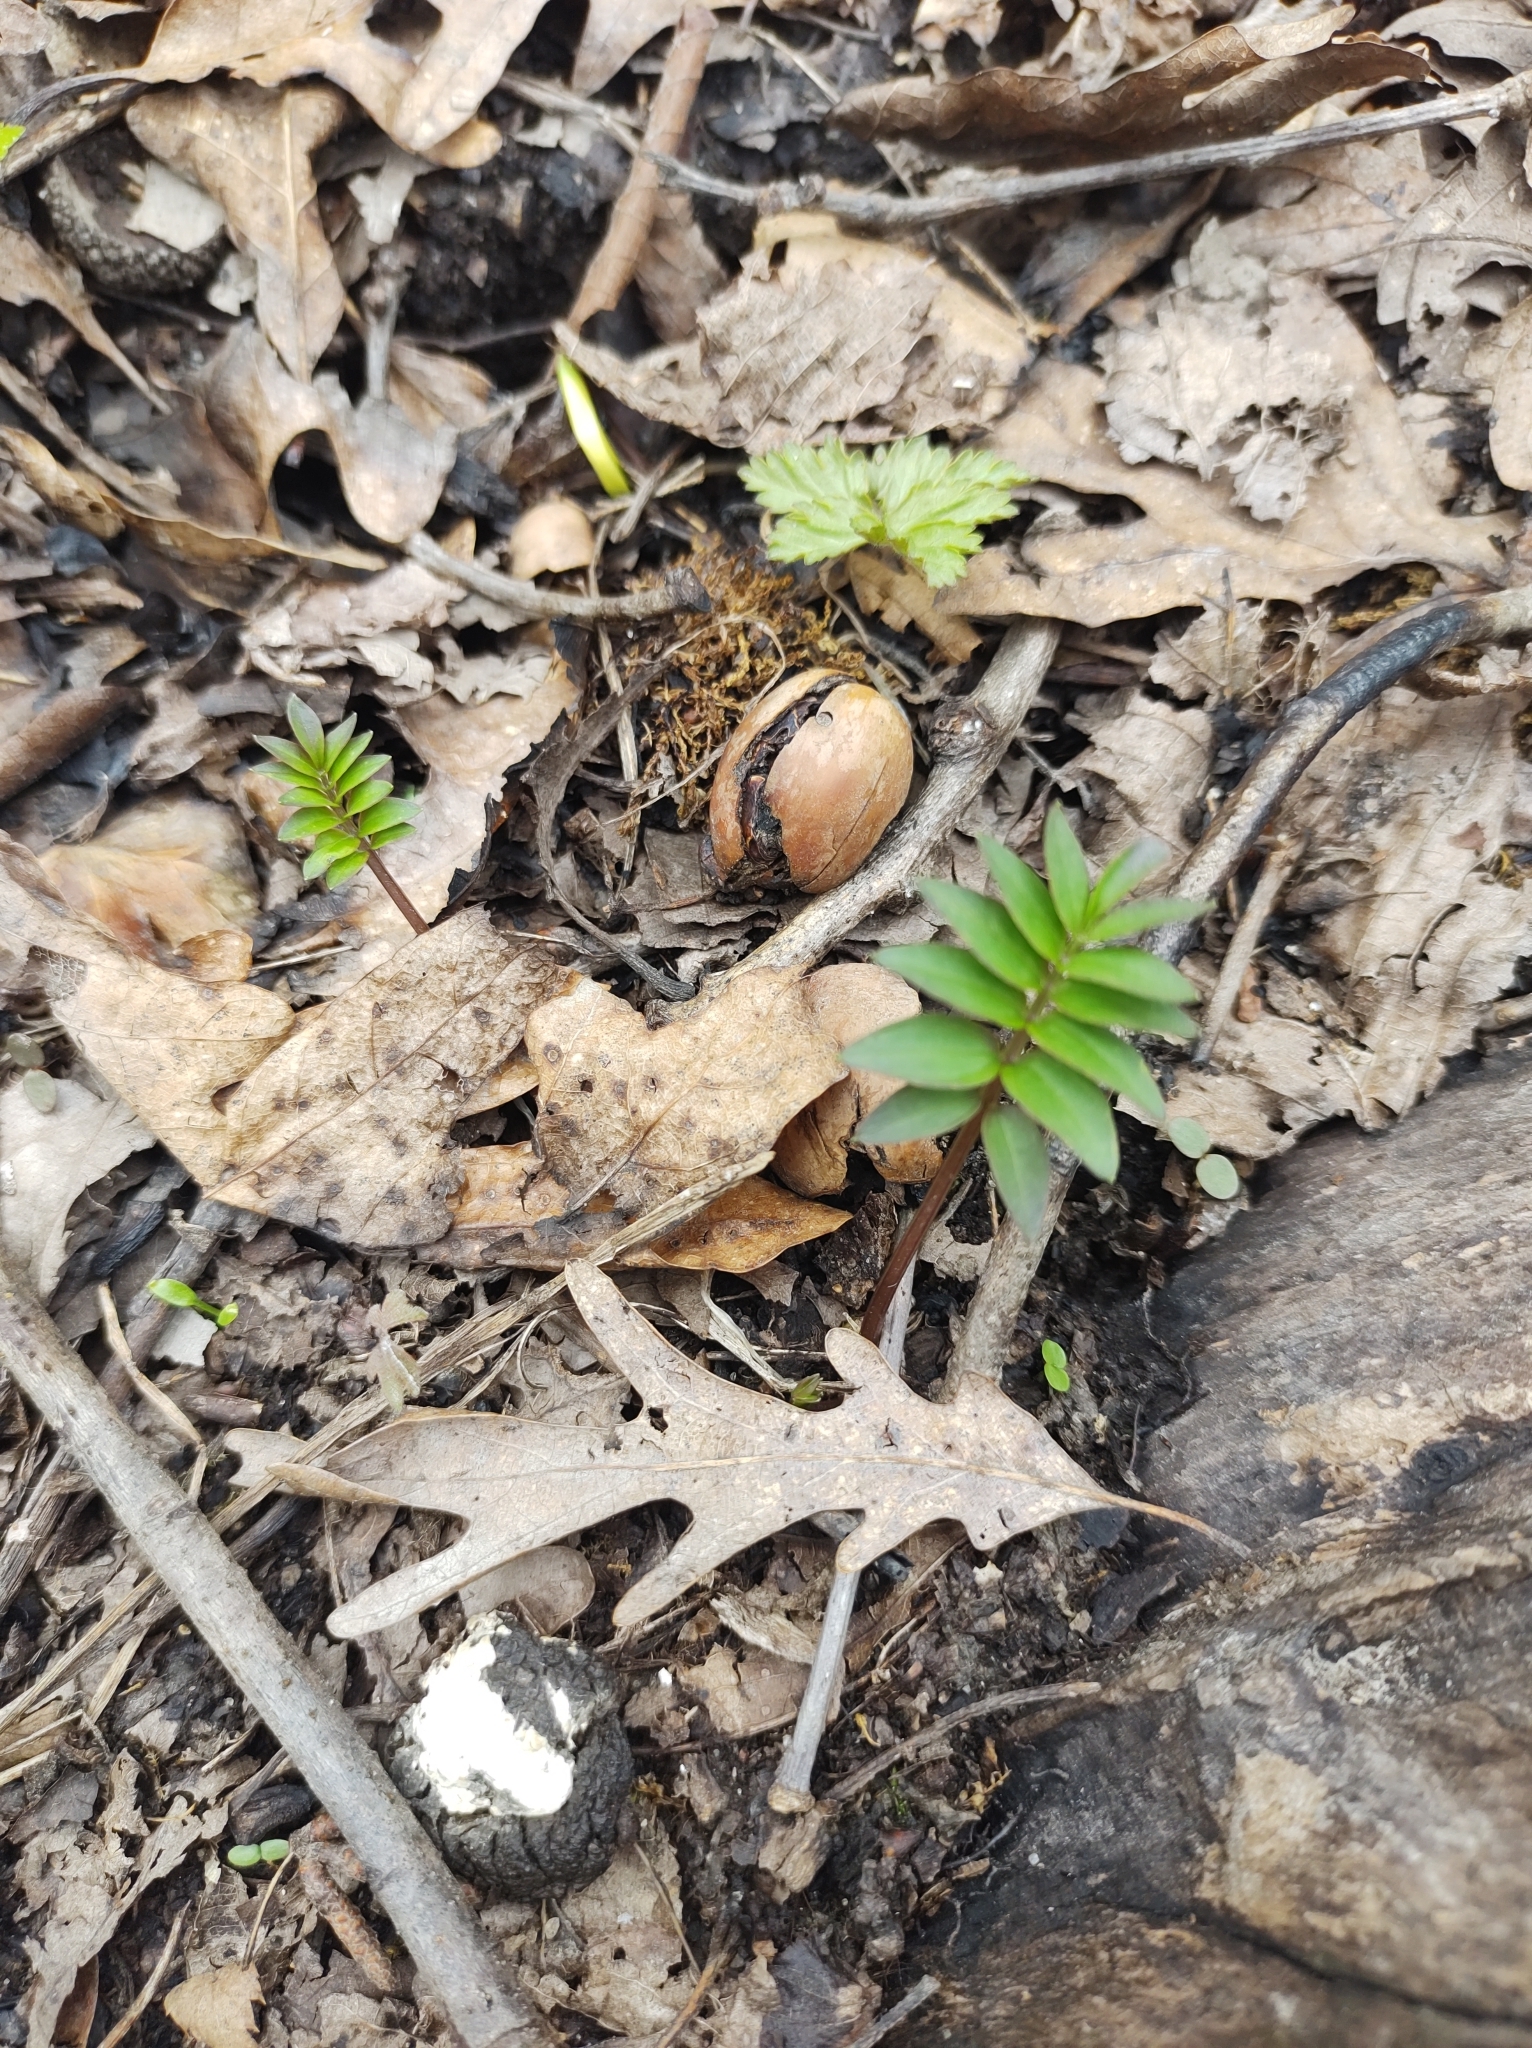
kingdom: Plantae
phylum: Tracheophyta
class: Magnoliopsida
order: Ericales
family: Polemoniaceae
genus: Polemonium
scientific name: Polemonium reptans
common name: Creeping jacob's-ladder
